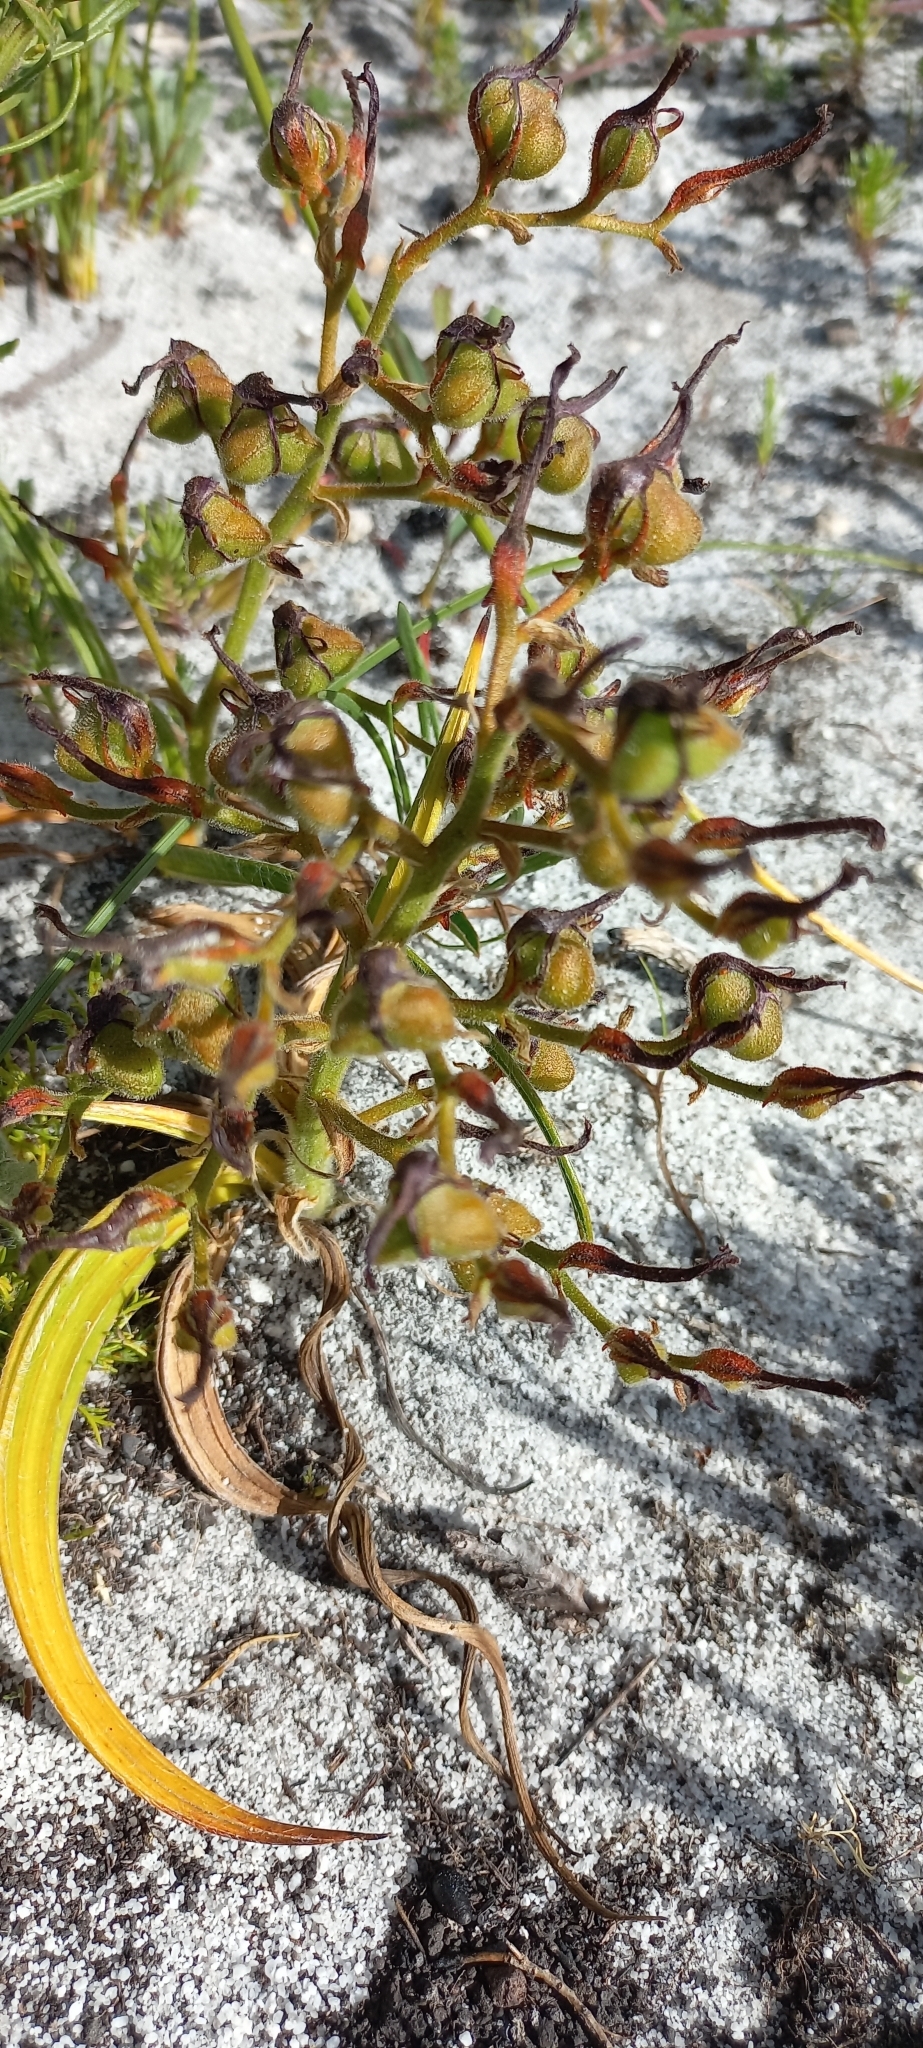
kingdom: Plantae
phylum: Tracheophyta
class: Liliopsida
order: Commelinales
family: Haemodoraceae
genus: Wachendorfia
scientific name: Wachendorfia paniculata
